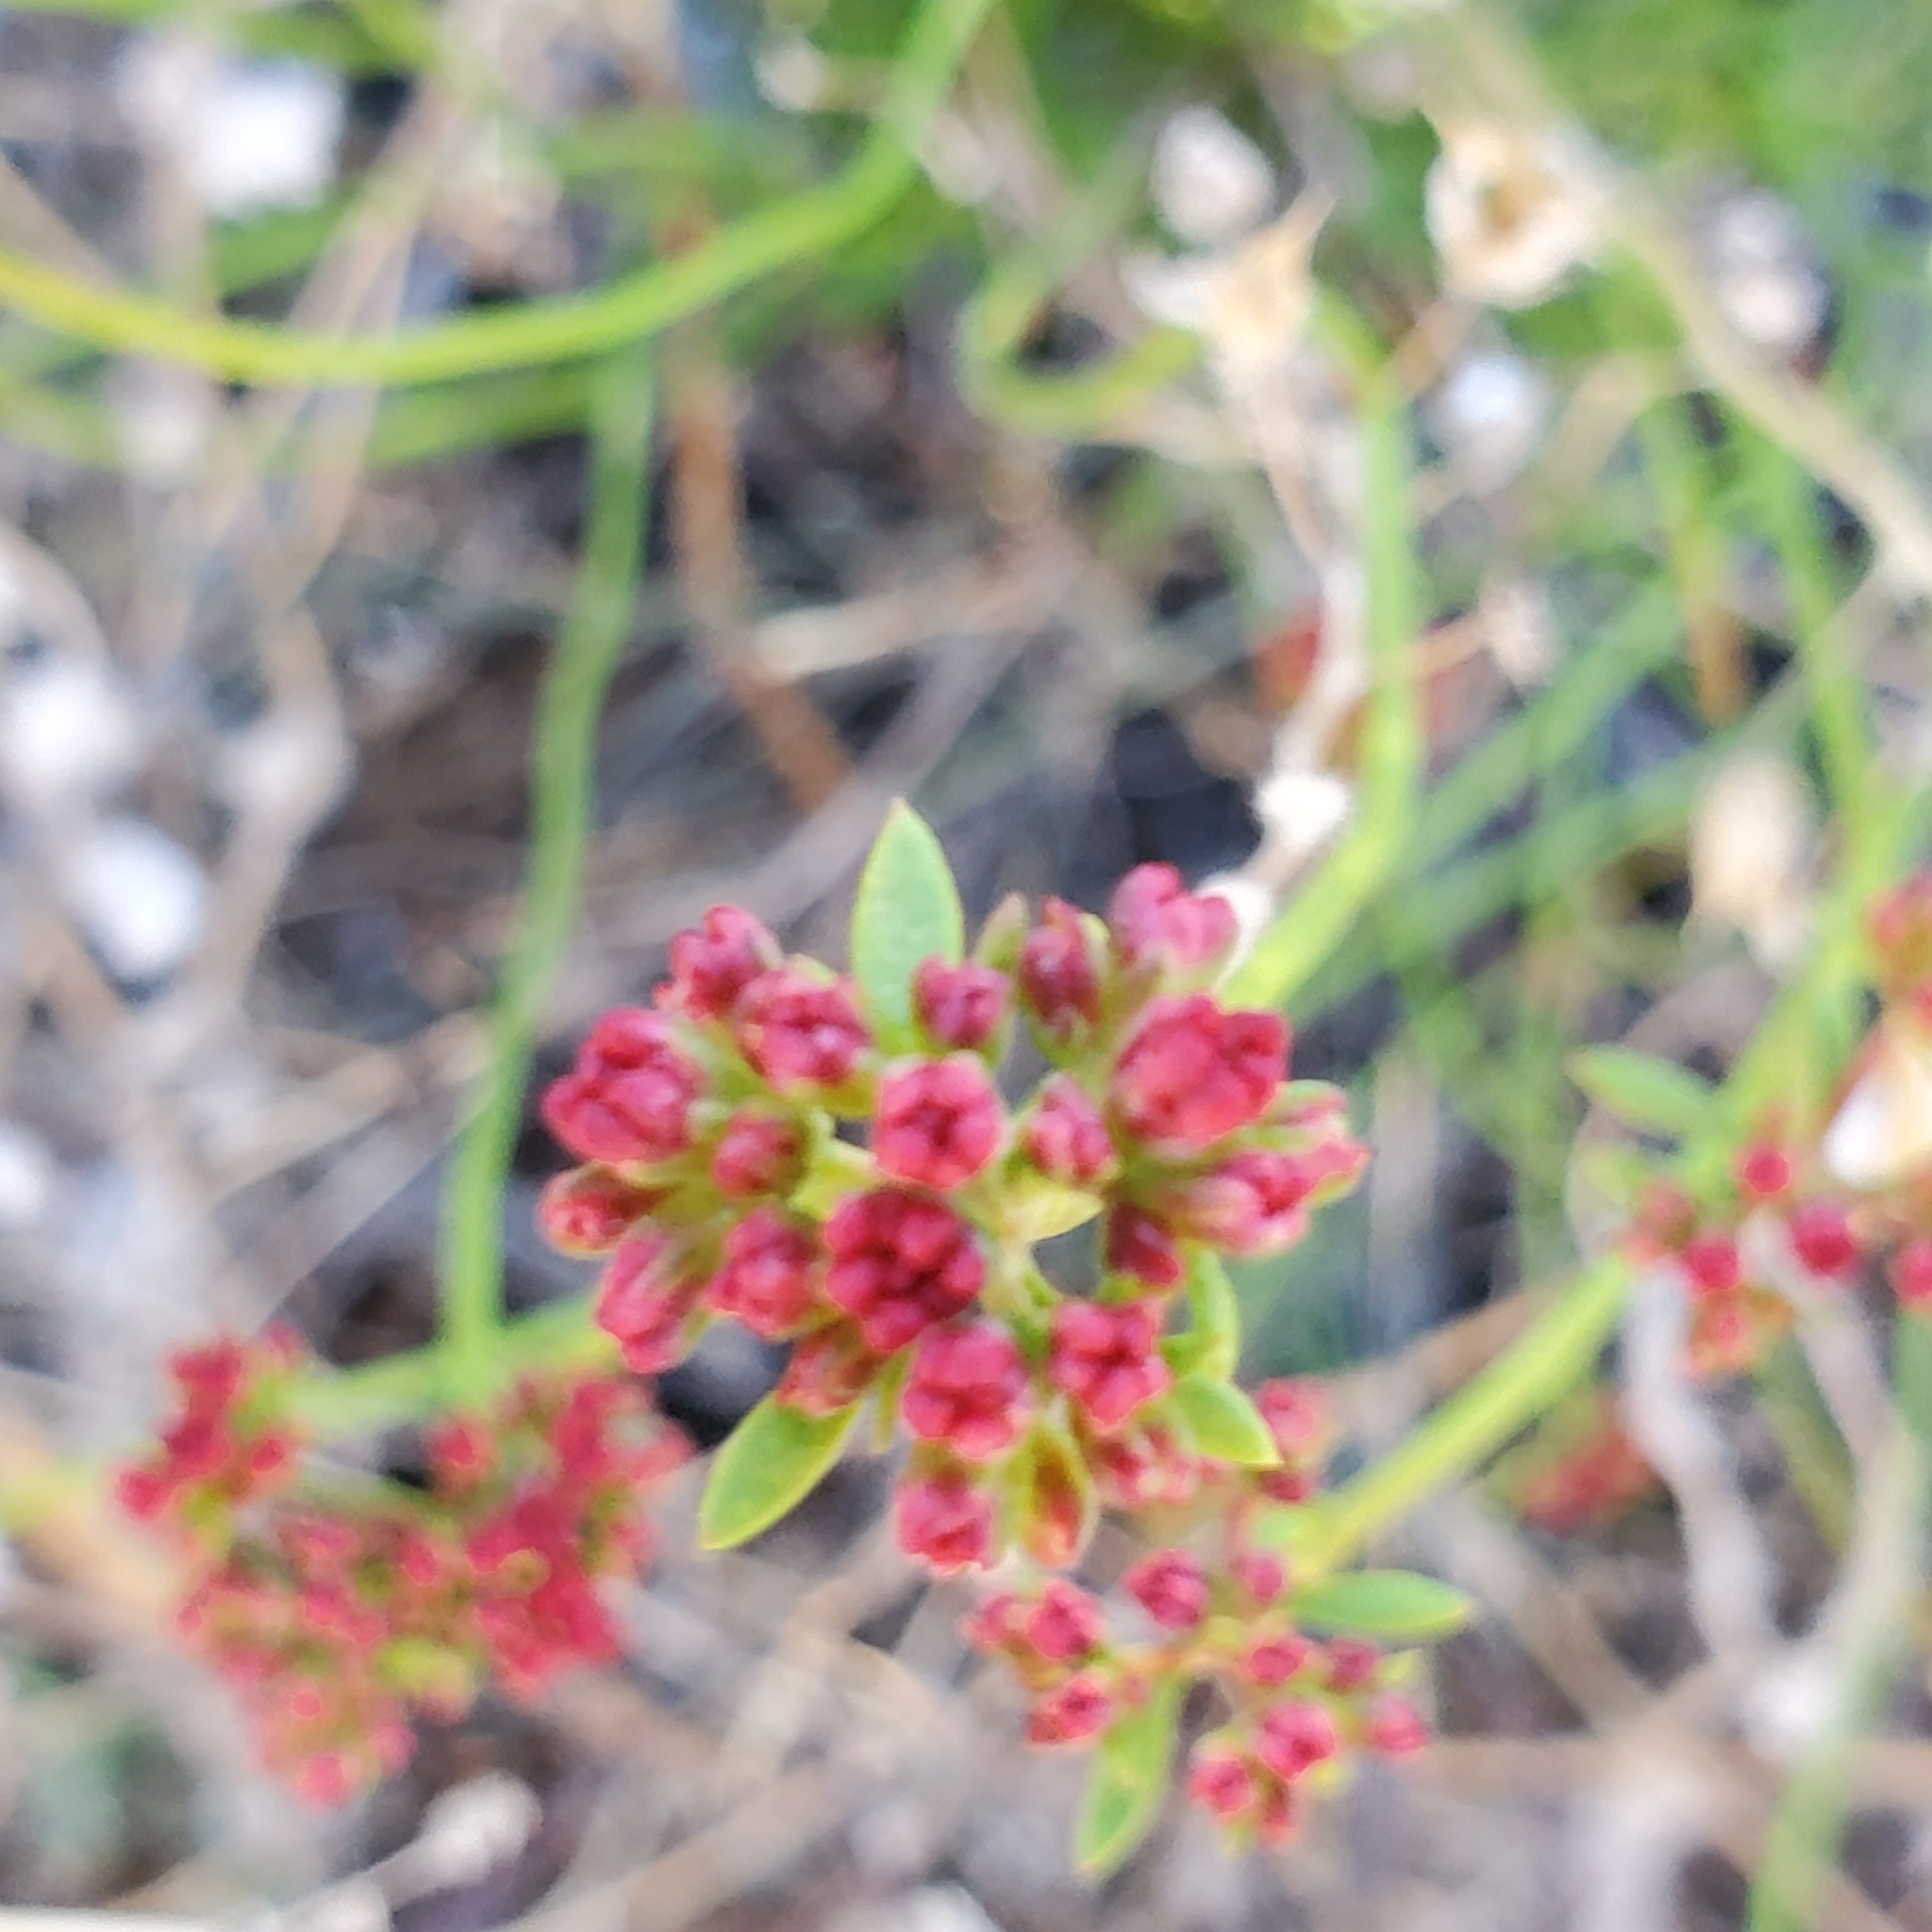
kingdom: Plantae
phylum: Tracheophyta
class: Magnoliopsida
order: Caryophyllales
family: Polygonaceae
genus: Eriogonum
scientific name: Eriogonum fasciculatum
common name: California wild buckwheat
